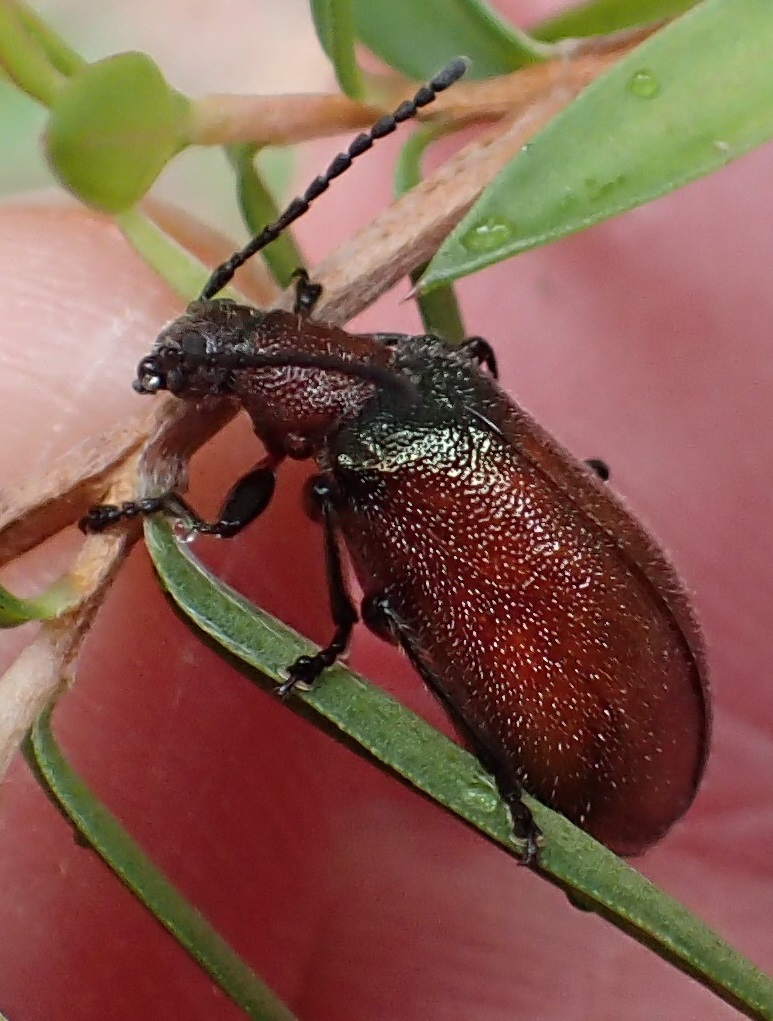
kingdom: Animalia
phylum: Arthropoda
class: Insecta
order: Coleoptera
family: Tenebrionidae
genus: Ecnolagria
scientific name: Ecnolagria
